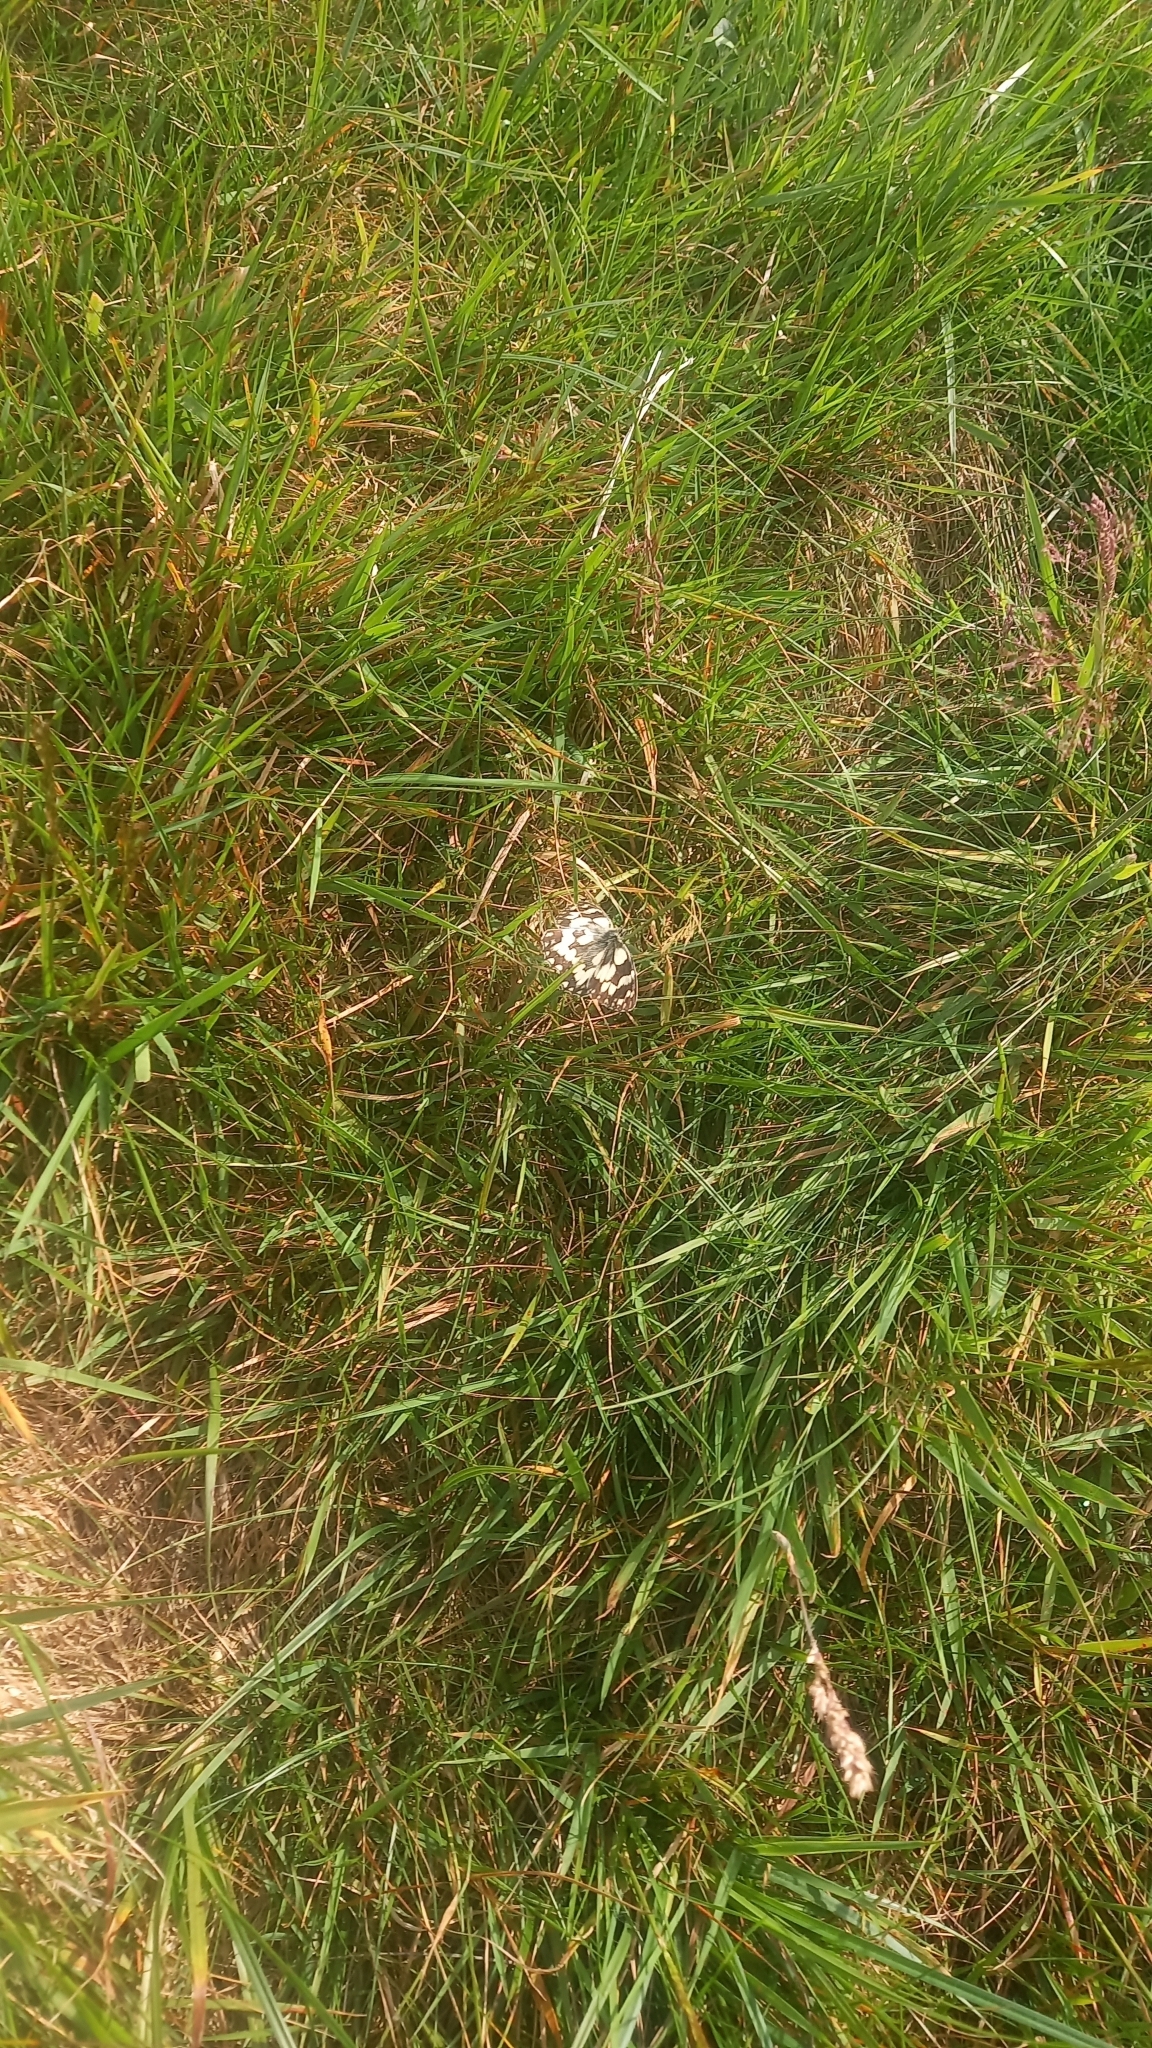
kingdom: Animalia
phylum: Arthropoda
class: Insecta
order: Lepidoptera
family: Nymphalidae
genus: Melanargia
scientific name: Melanargia galathea
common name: Marbled white
